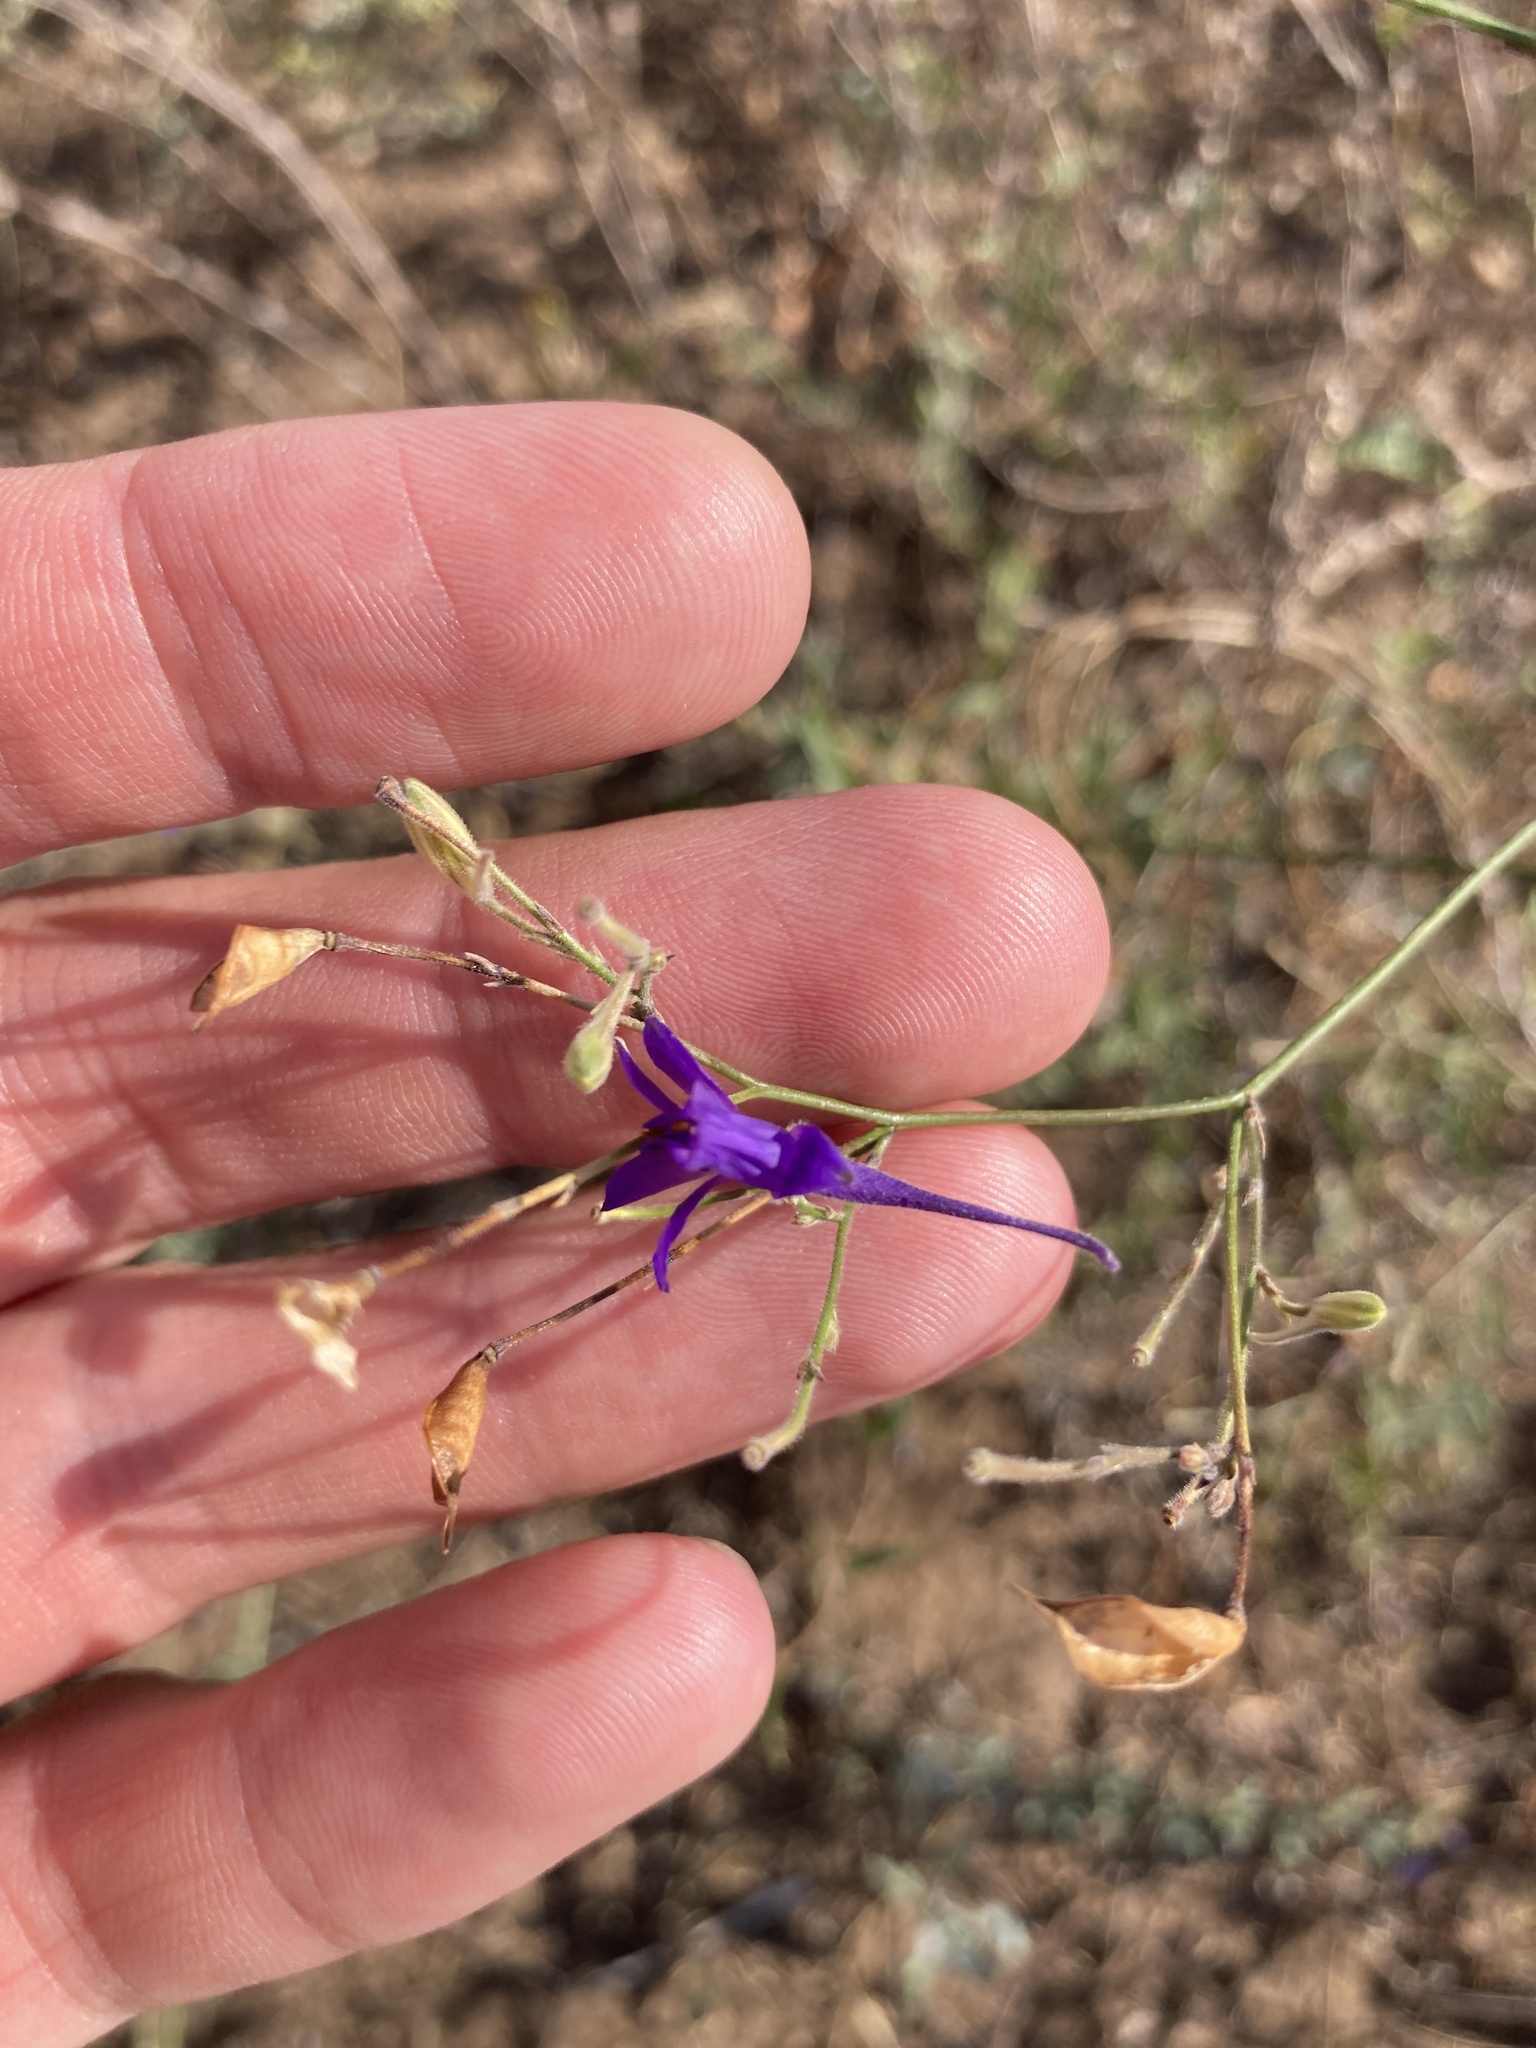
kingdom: Plantae
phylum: Tracheophyta
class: Magnoliopsida
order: Ranunculales
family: Ranunculaceae
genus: Delphinium
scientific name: Delphinium consolida
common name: Branching larkspur
